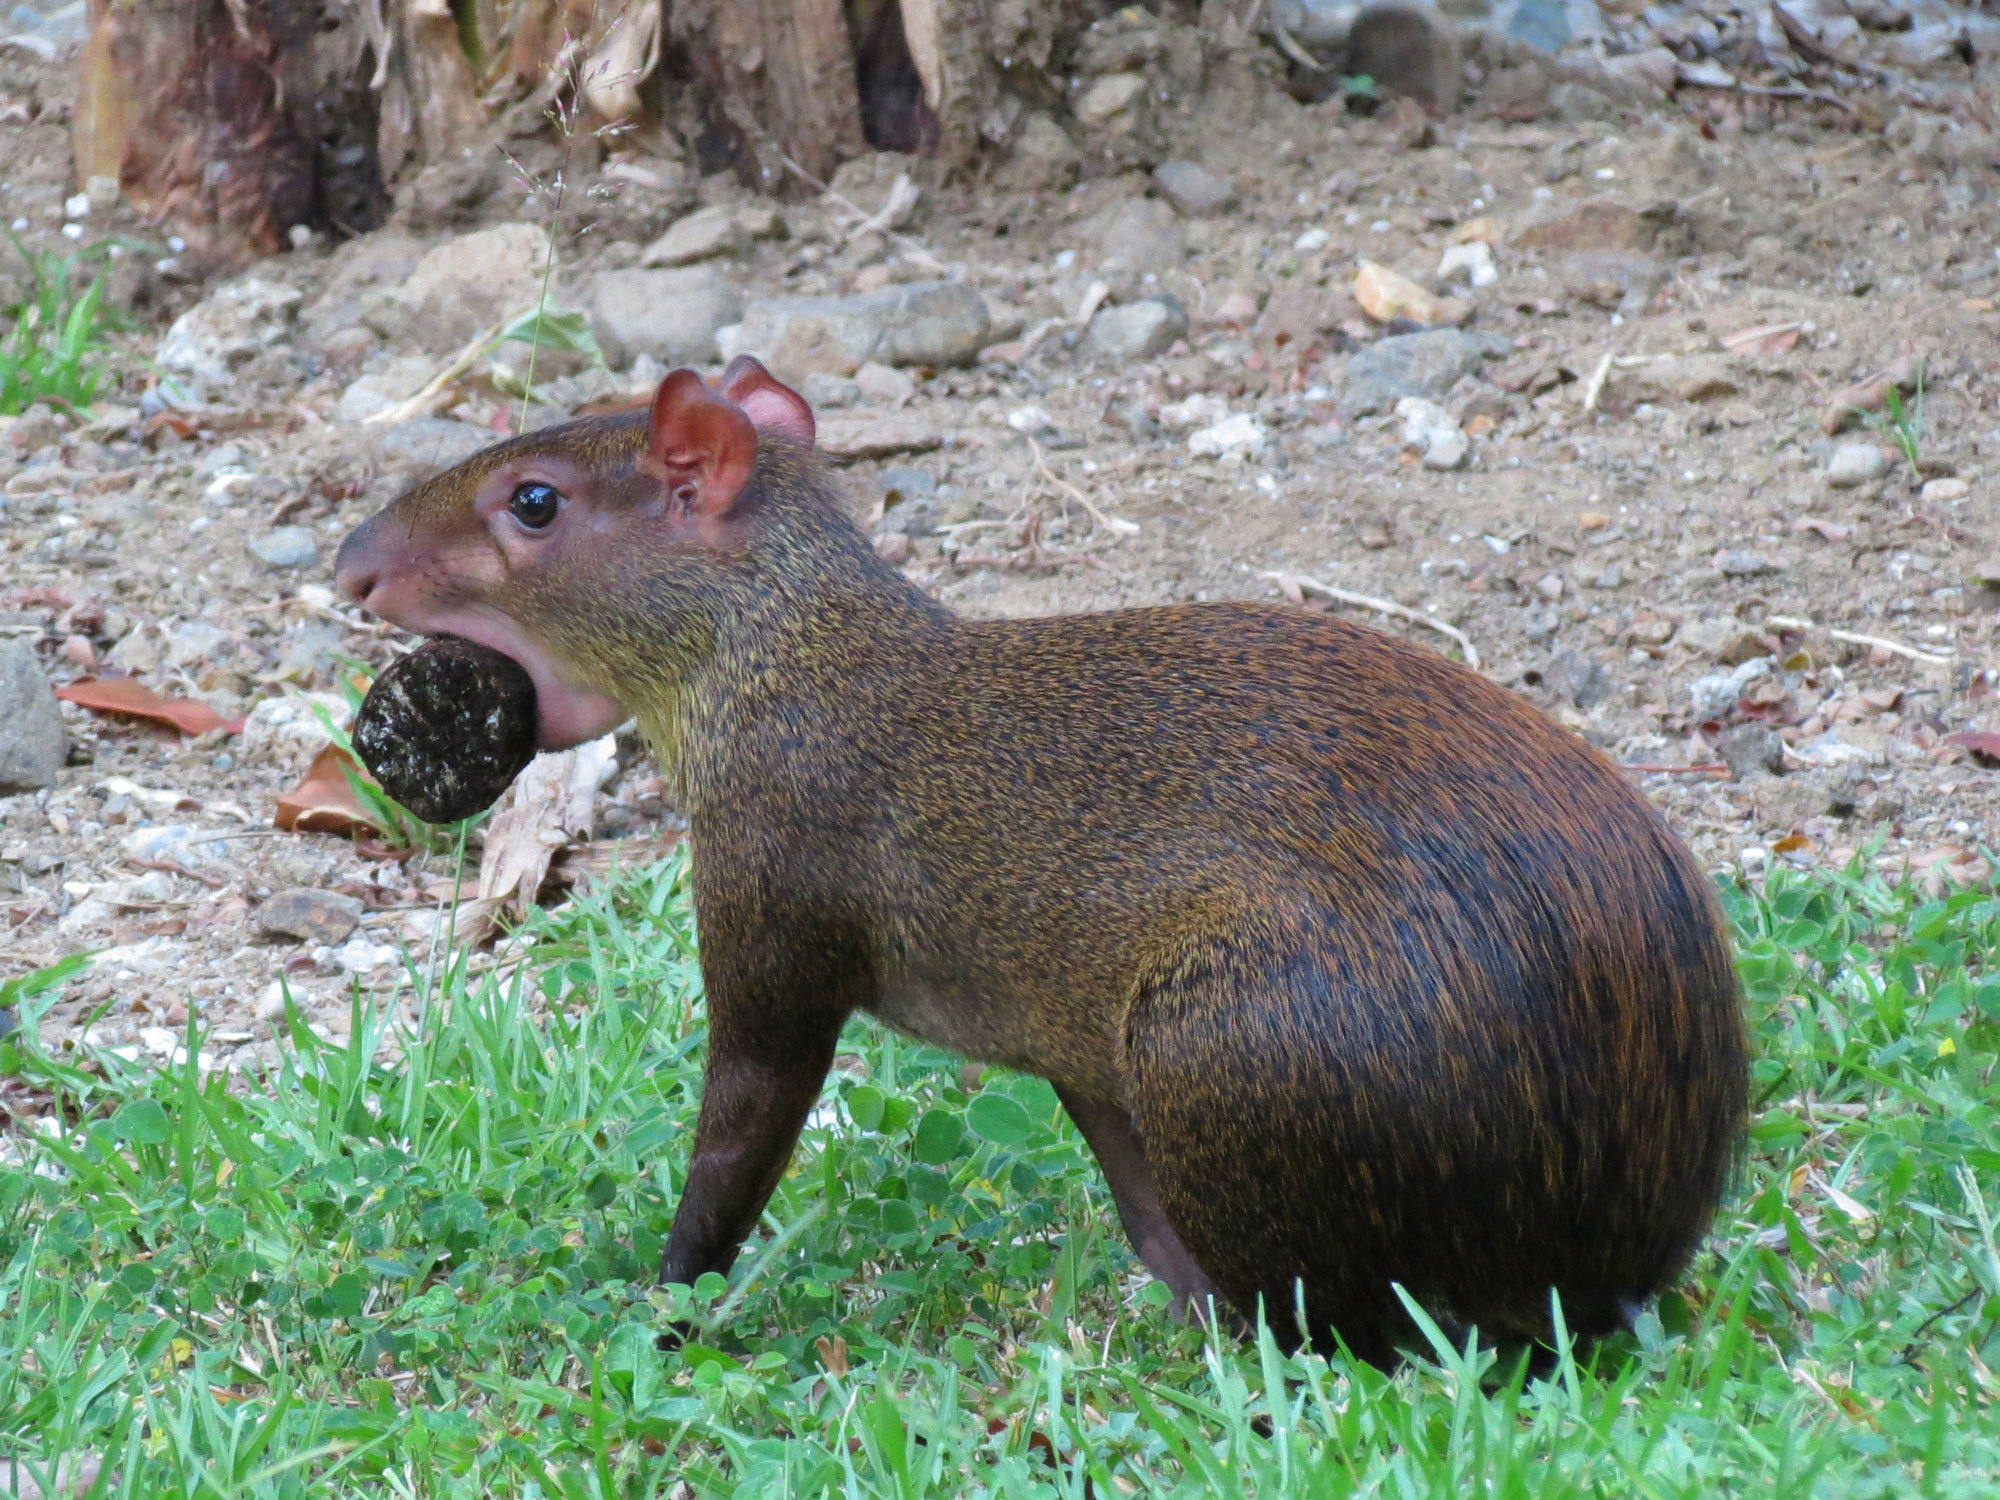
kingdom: Animalia
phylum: Chordata
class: Mammalia
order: Rodentia
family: Dasyproctidae
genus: Dasyprocta
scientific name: Dasyprocta punctata
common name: Central american agouti
